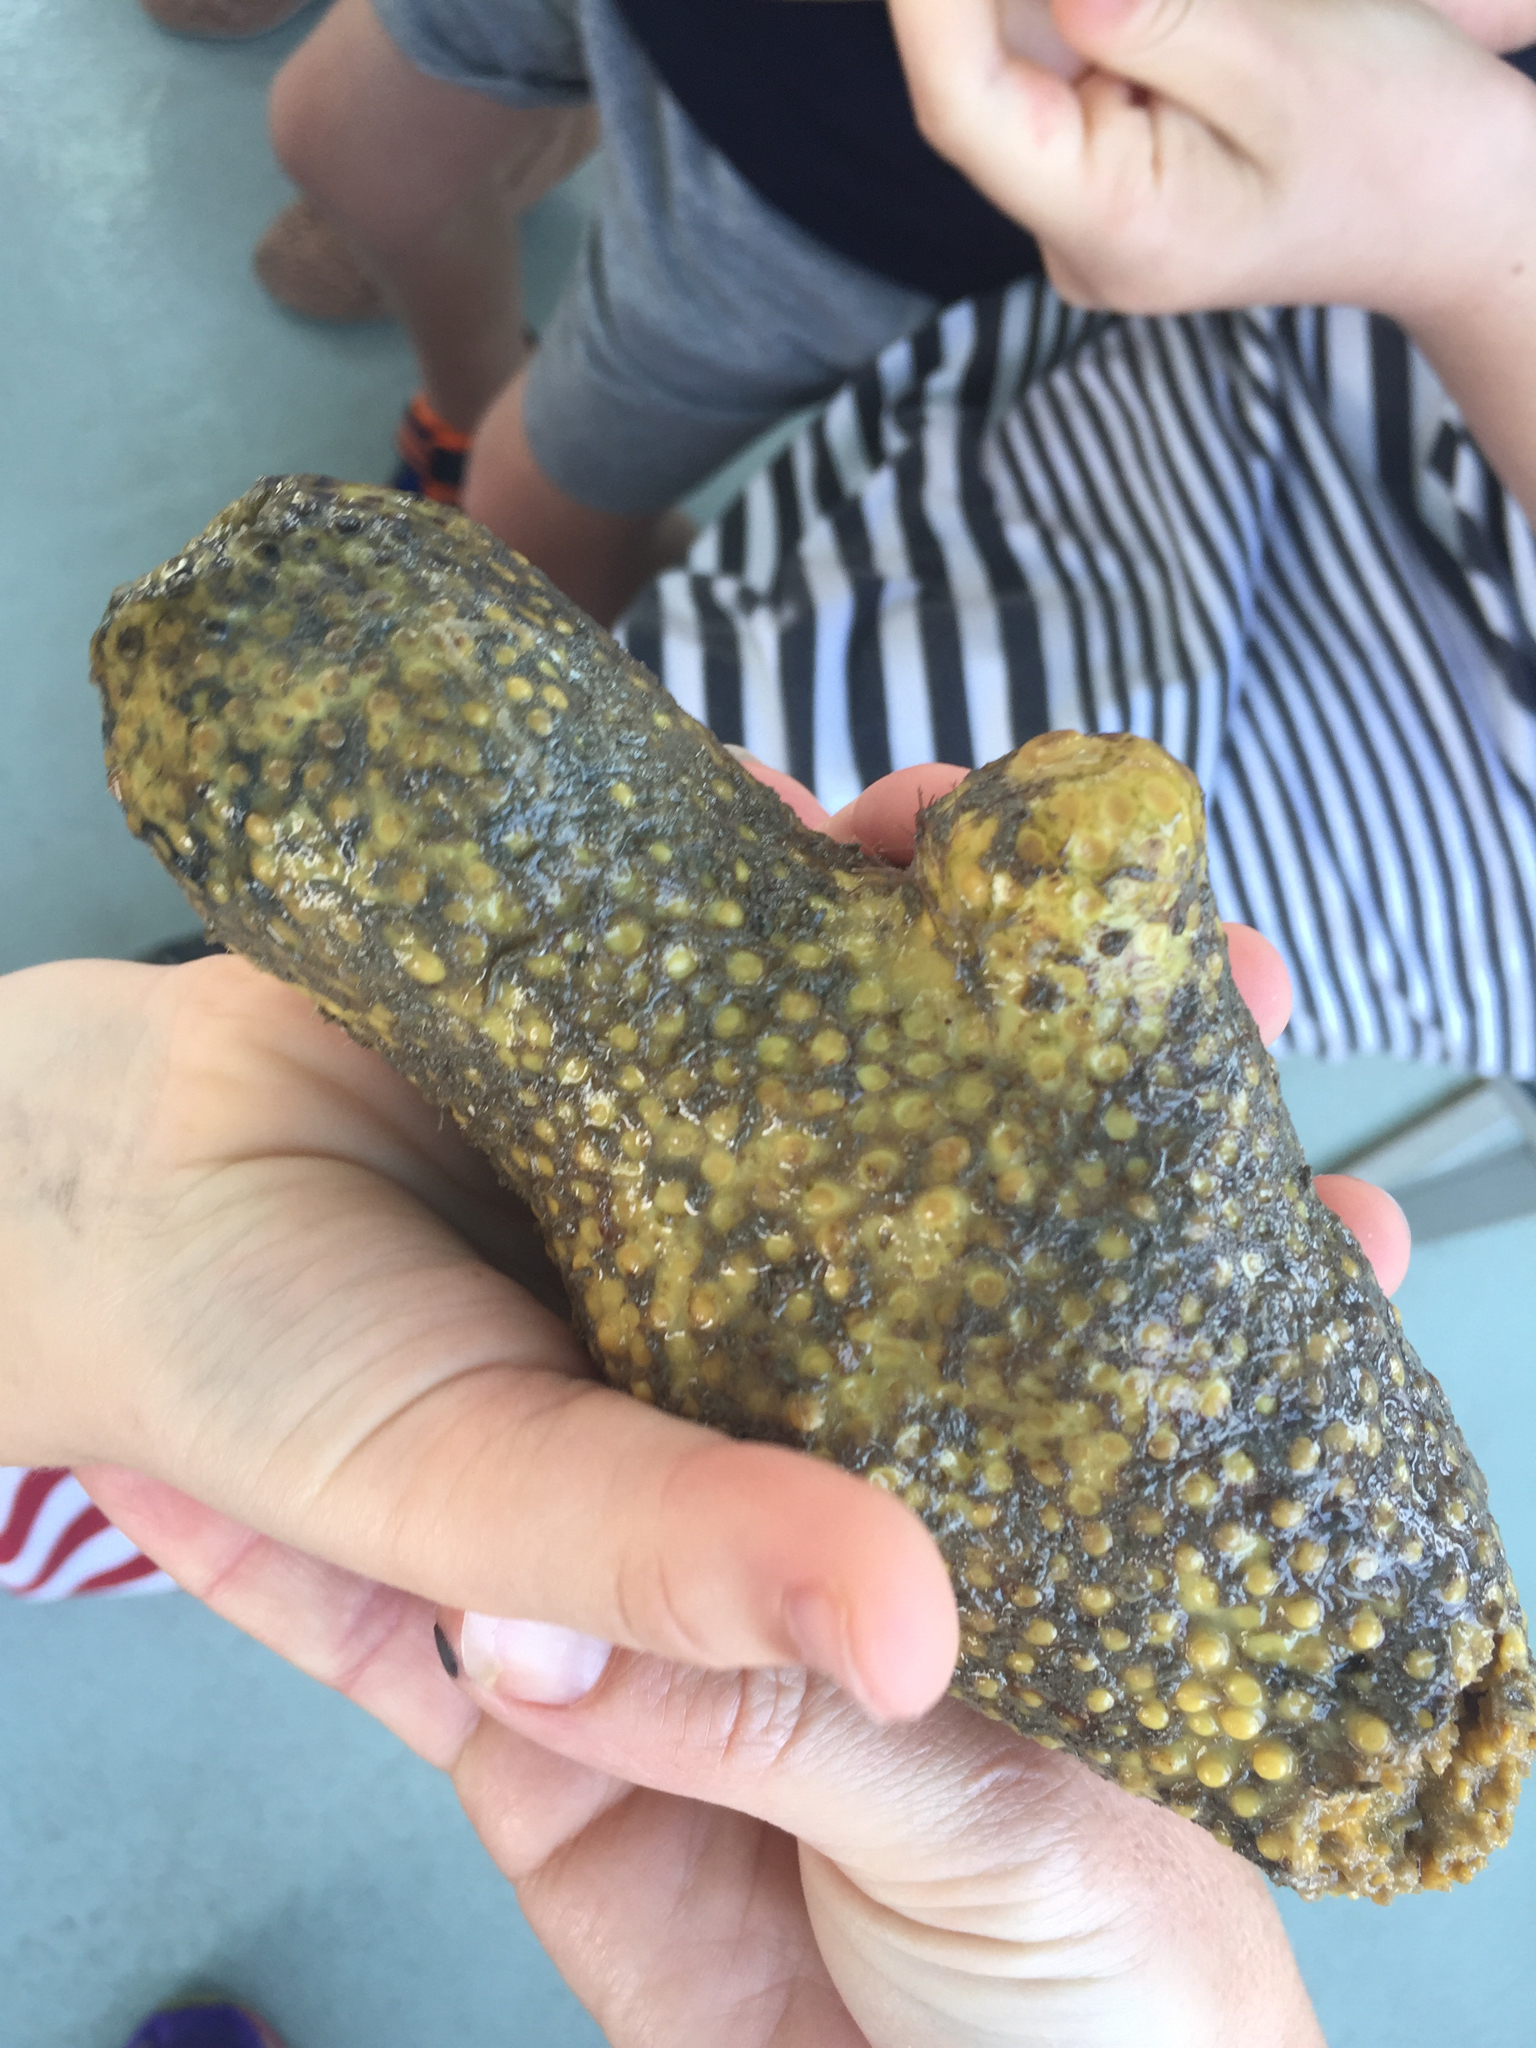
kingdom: Animalia
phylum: Porifera
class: Demospongiae
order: Clionaida
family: Clionaidae
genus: Cliona
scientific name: Cliona celata
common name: Boring sponge
